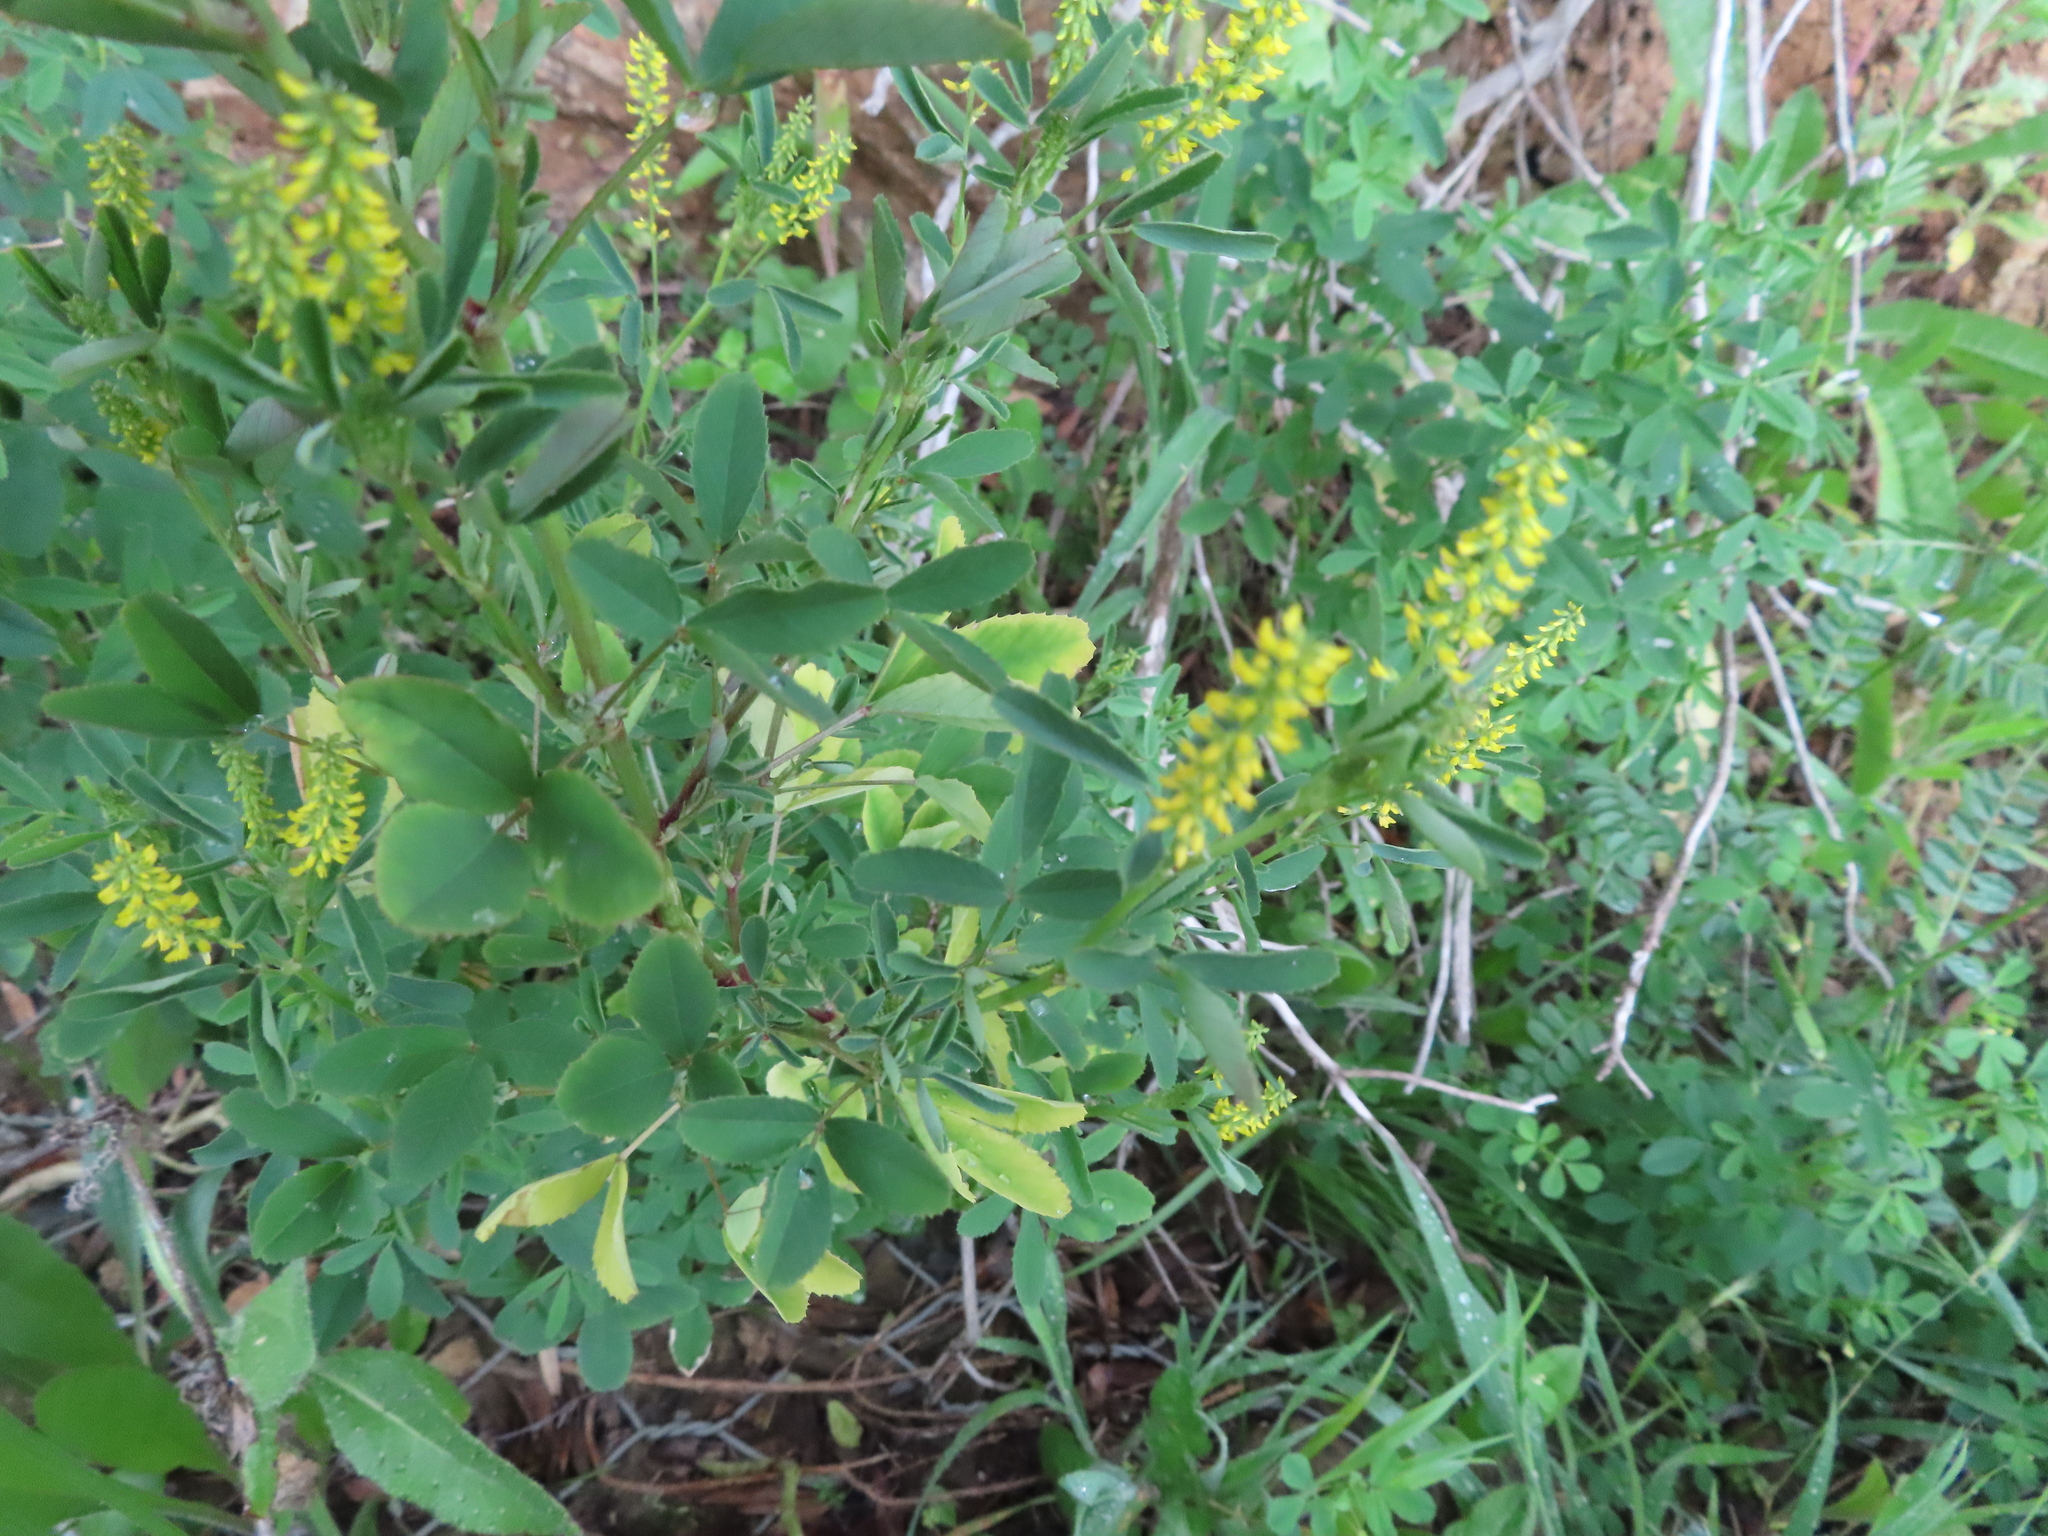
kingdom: Plantae
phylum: Tracheophyta
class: Magnoliopsida
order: Fabales
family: Fabaceae
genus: Melilotus
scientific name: Melilotus indicus
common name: Small melilot
